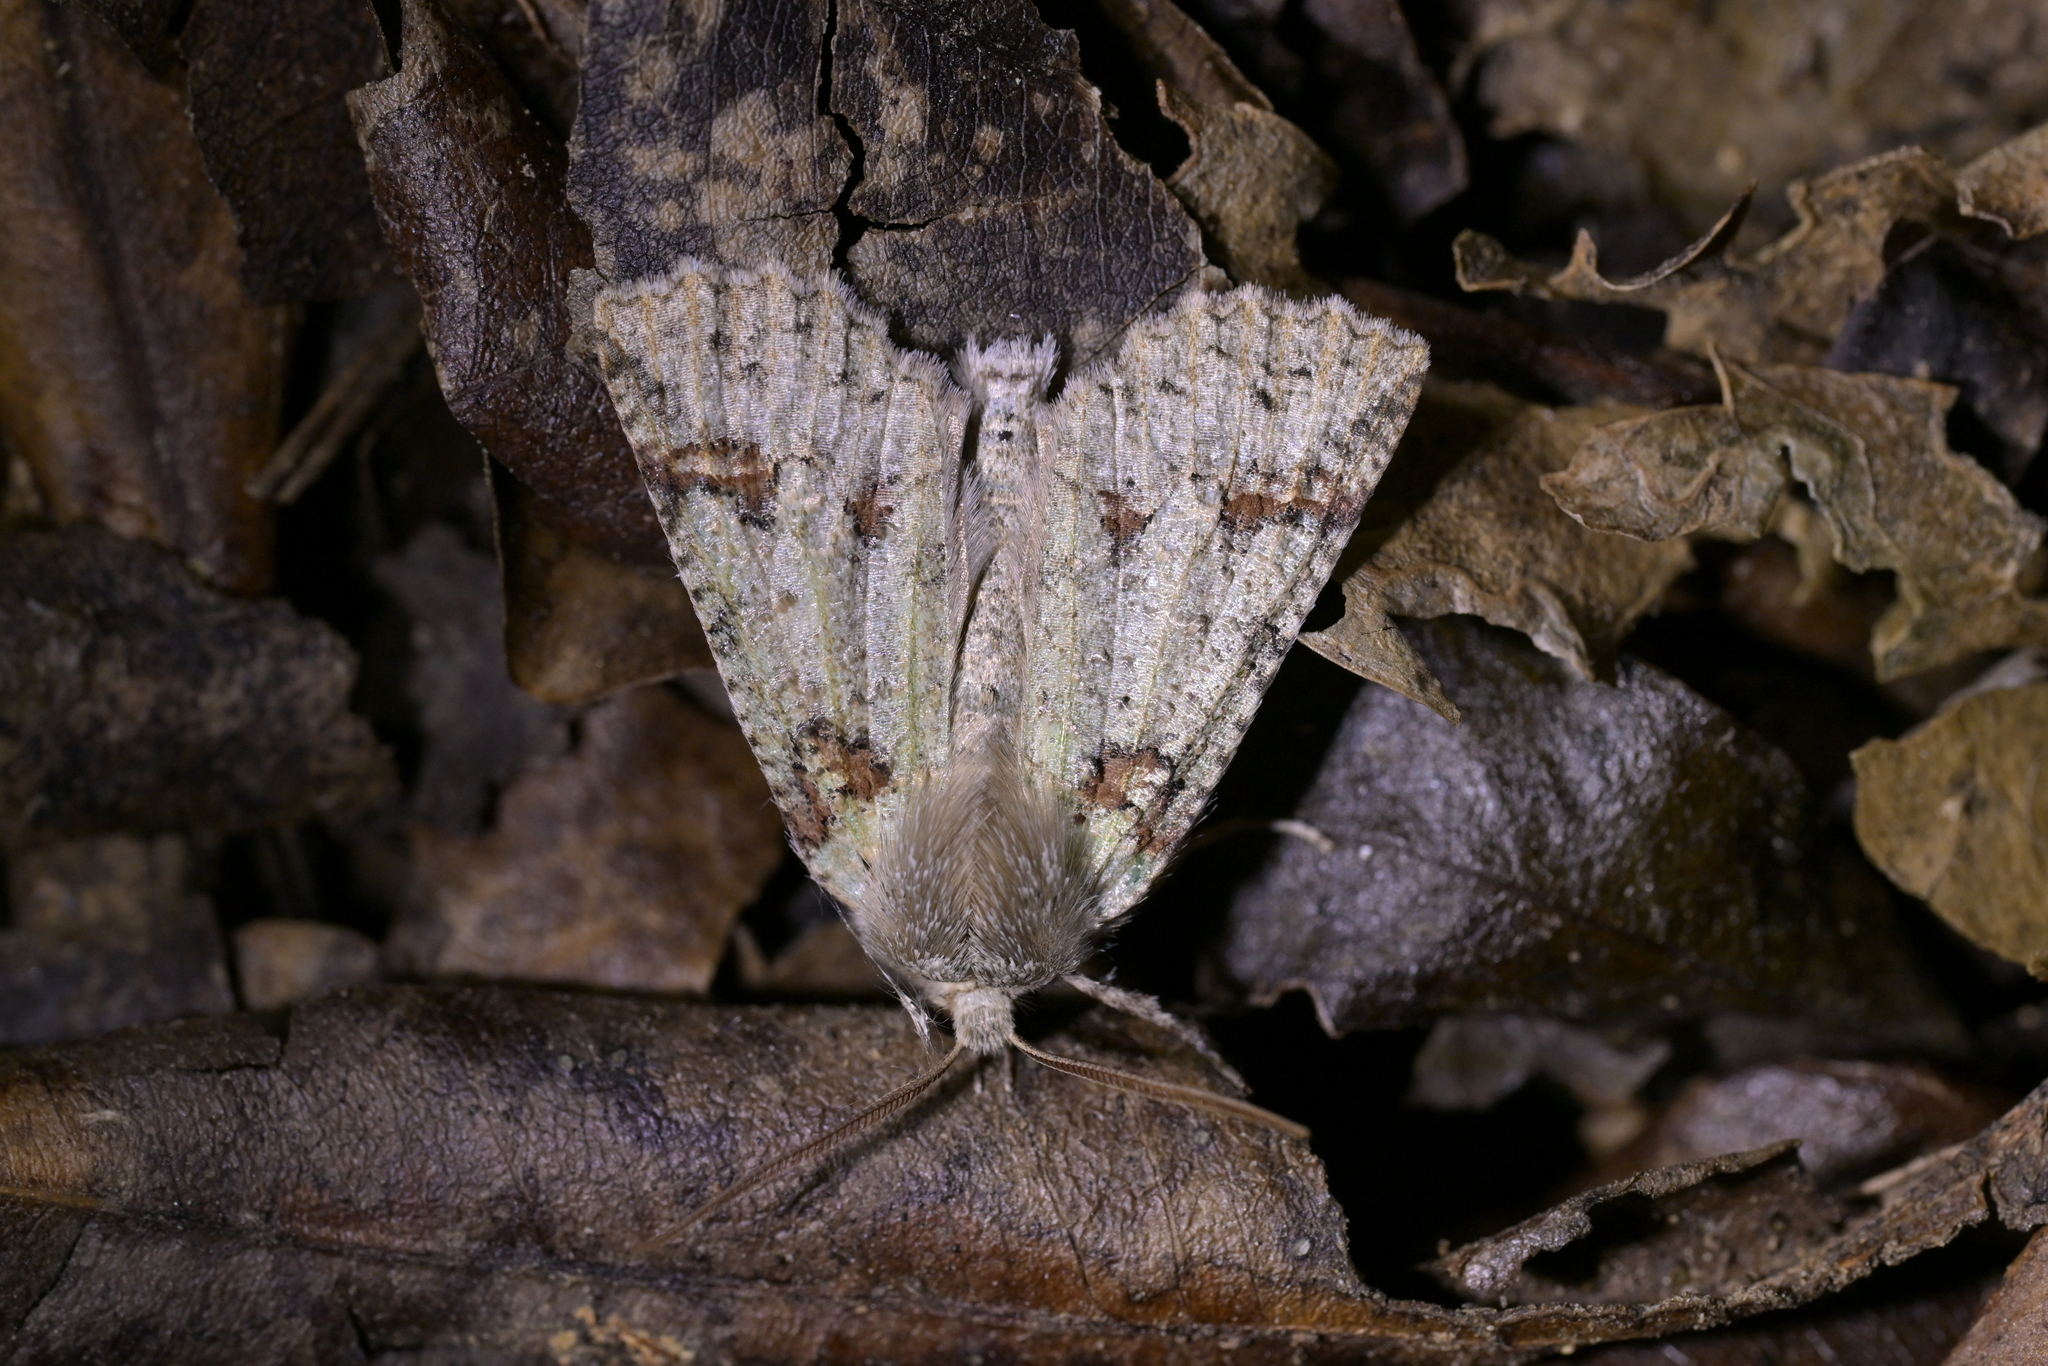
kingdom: Animalia
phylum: Arthropoda
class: Insecta
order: Lepidoptera
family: Geometridae
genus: Declana
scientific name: Declana floccosa
